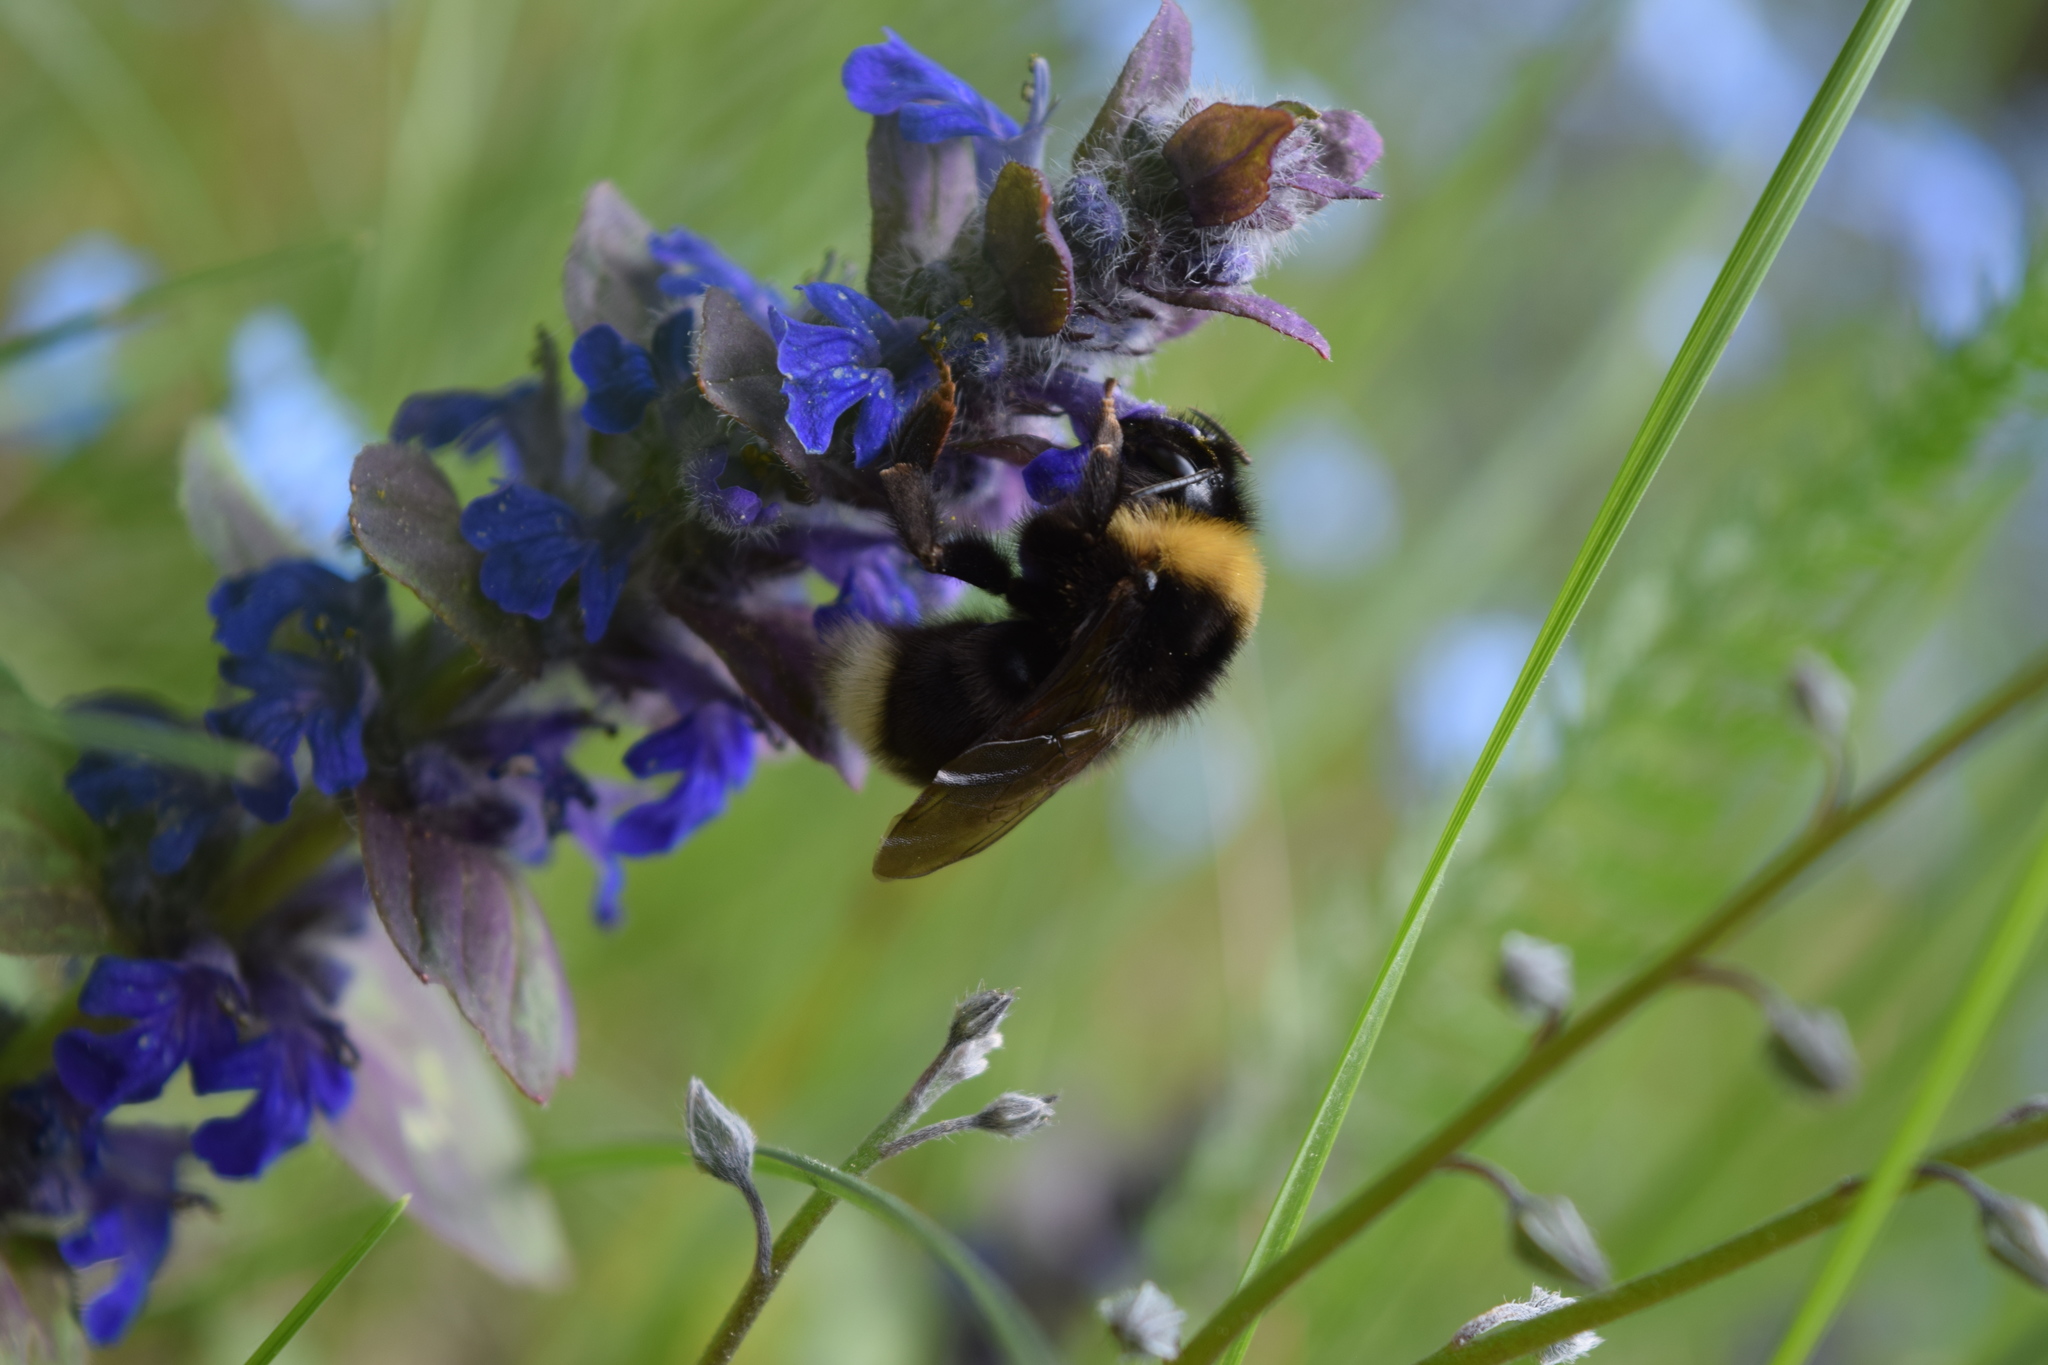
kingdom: Animalia
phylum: Arthropoda
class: Insecta
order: Hymenoptera
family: Apidae
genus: Bombus
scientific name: Bombus
